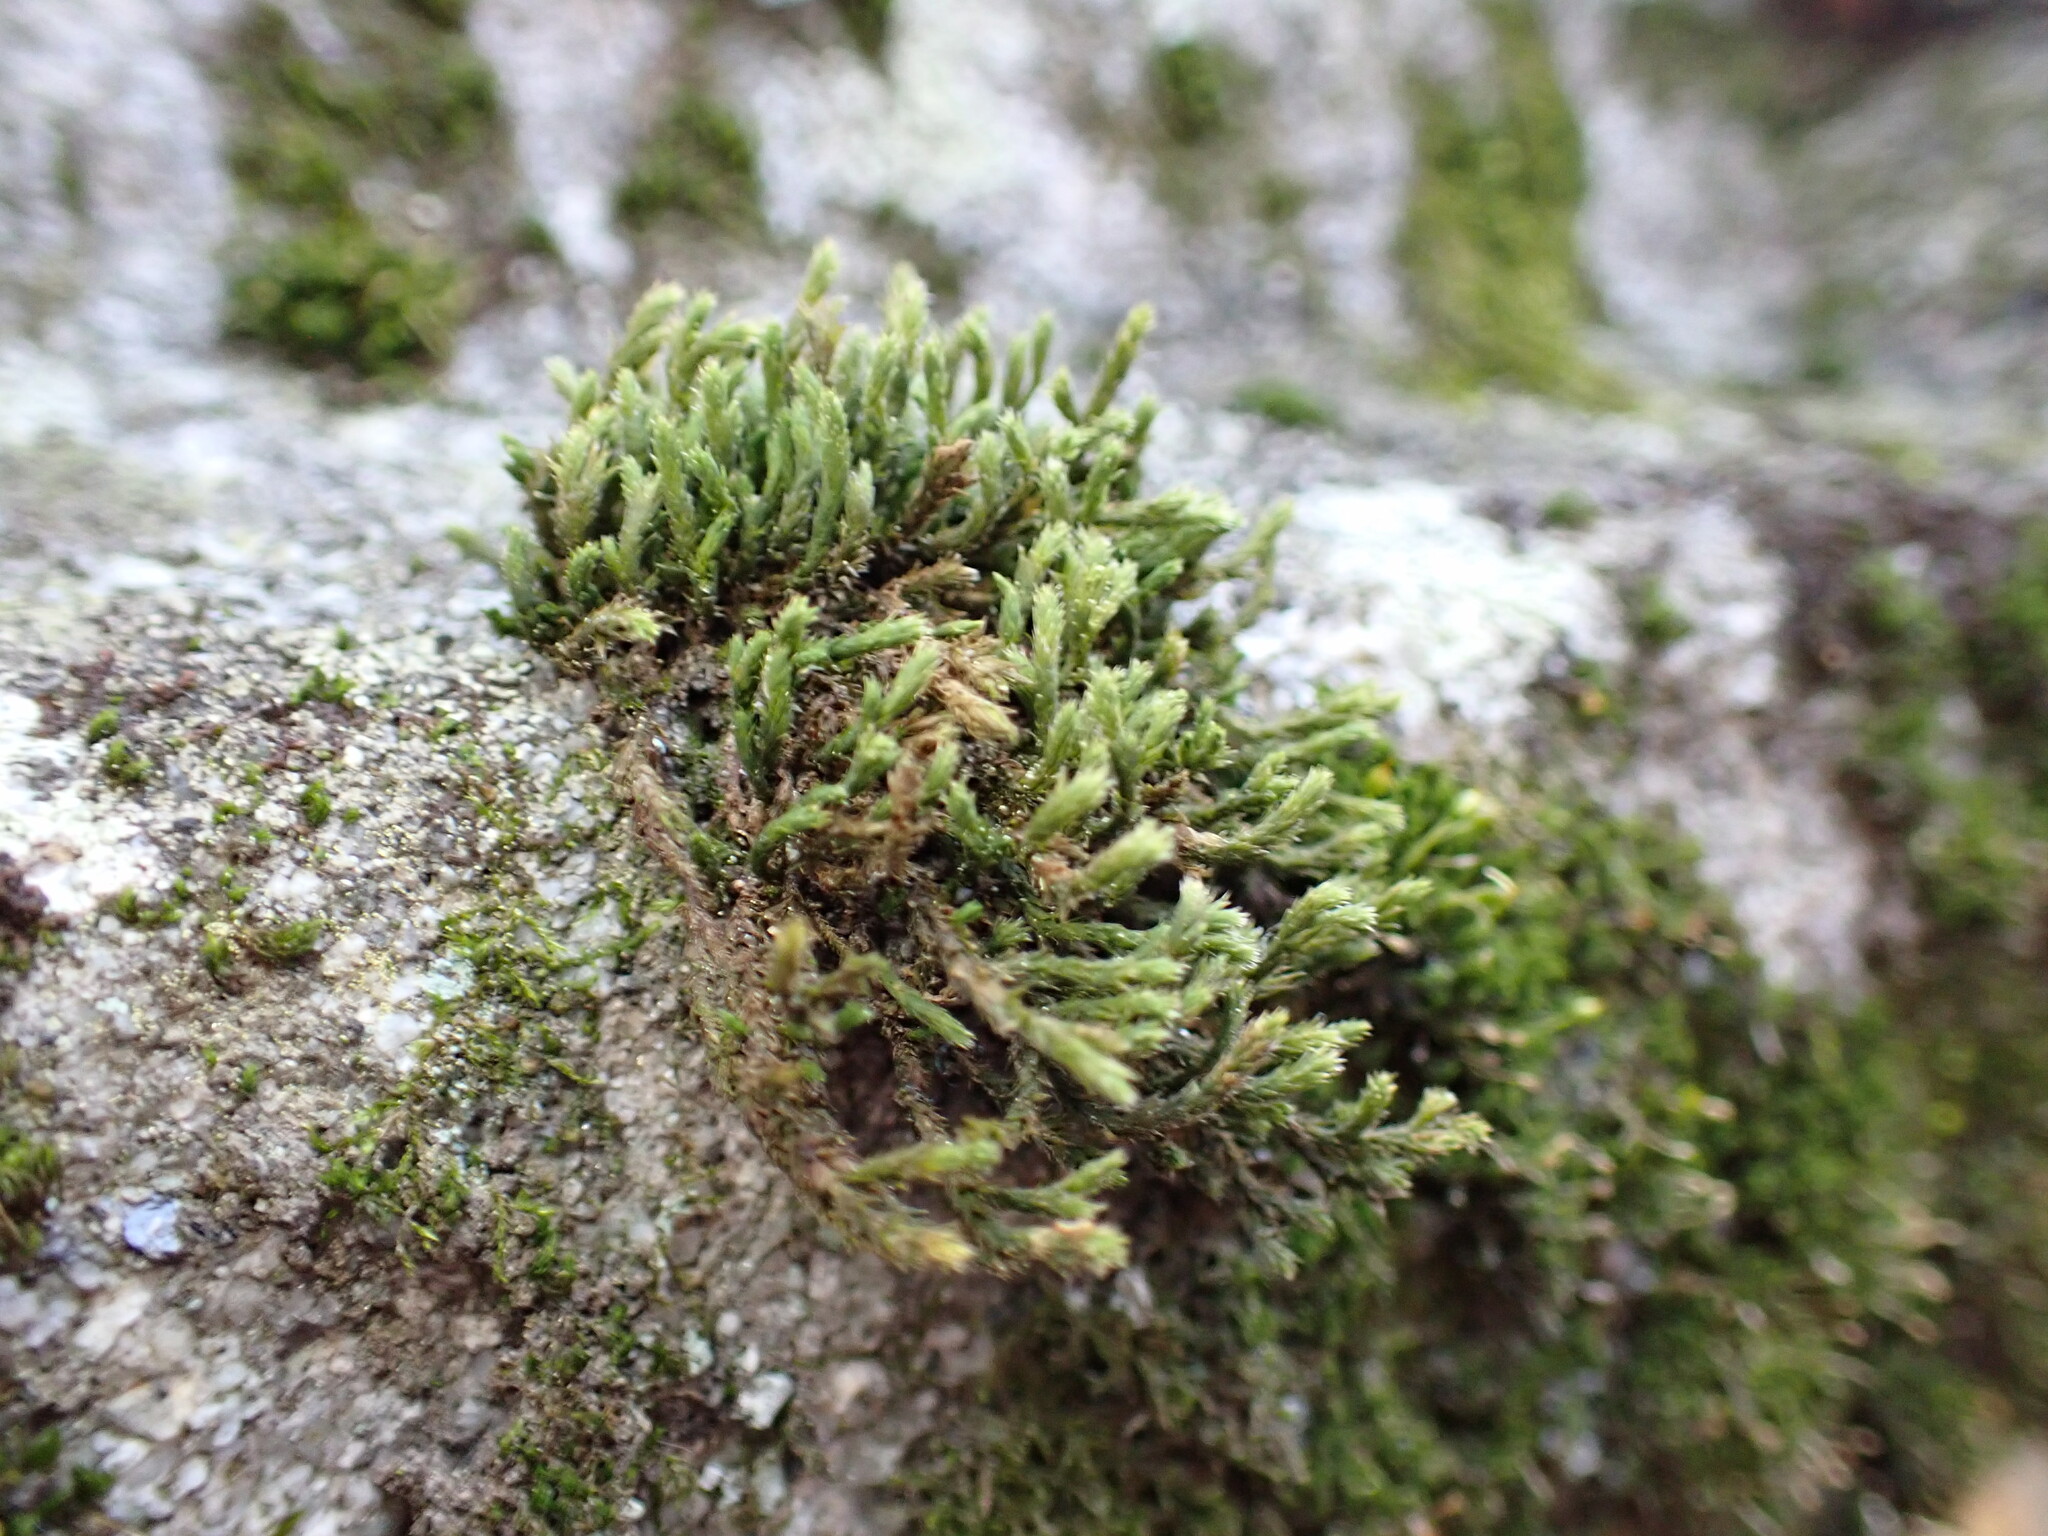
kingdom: Plantae
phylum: Bryophyta
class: Bryopsida
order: Hedwigiales
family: Hedwigiaceae
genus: Hedwigia
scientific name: Hedwigia ciliata
